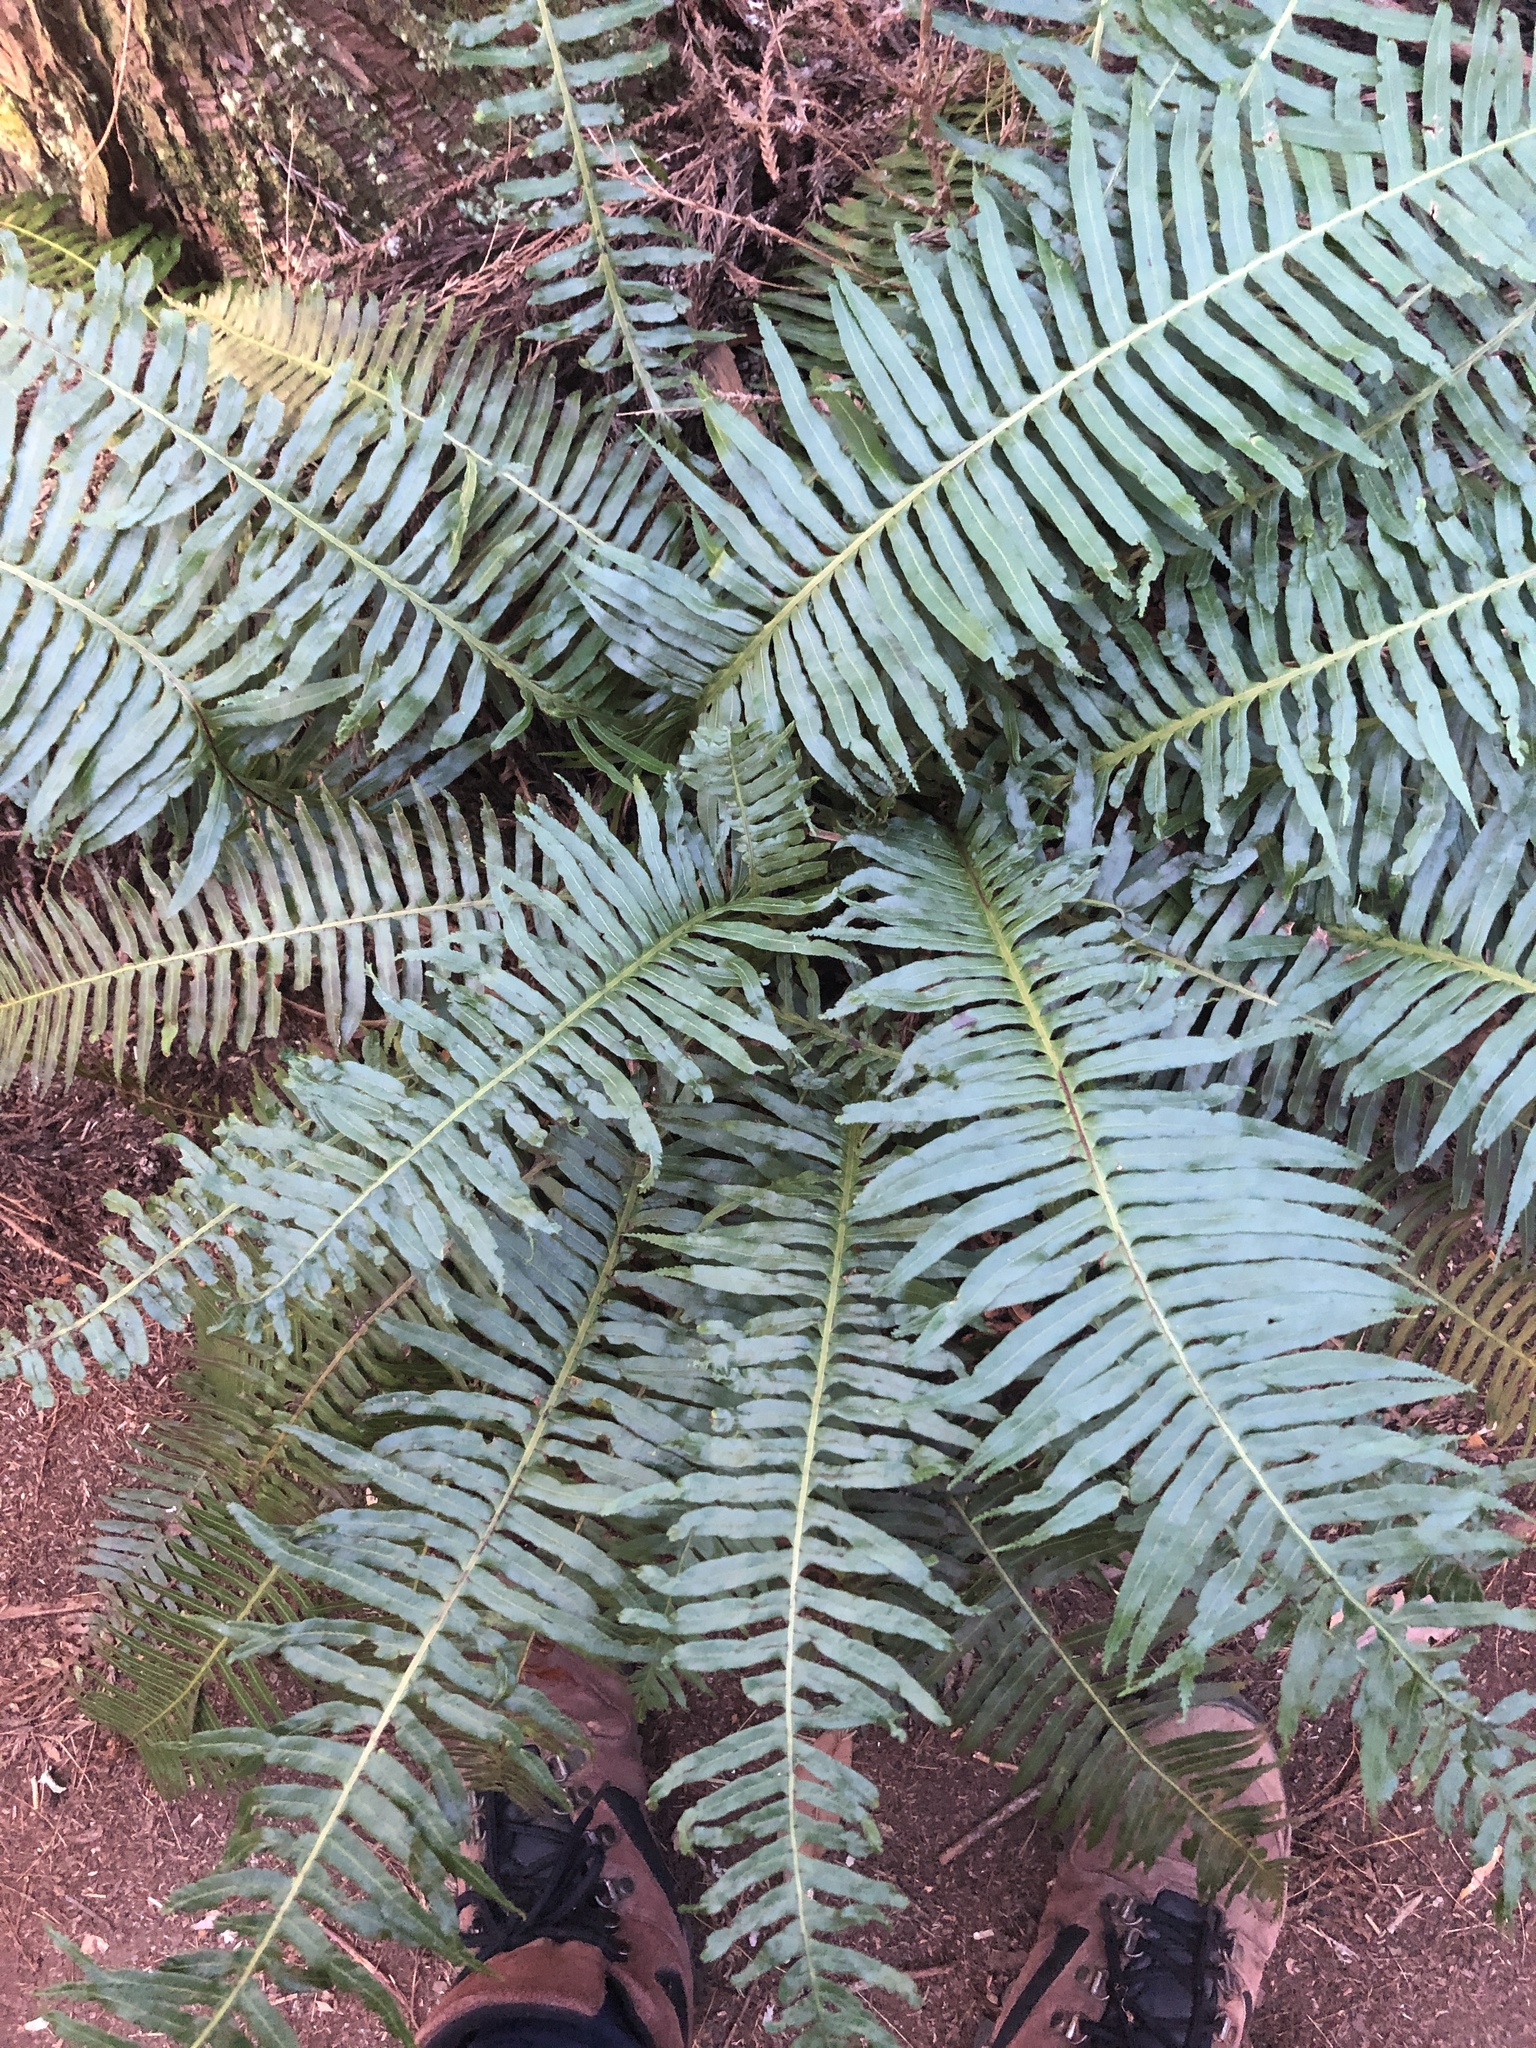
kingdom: Plantae
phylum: Tracheophyta
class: Polypodiopsida
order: Cyatheales
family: Plagiogyriaceae
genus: Plagiogyria
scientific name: Plagiogyria falcata
